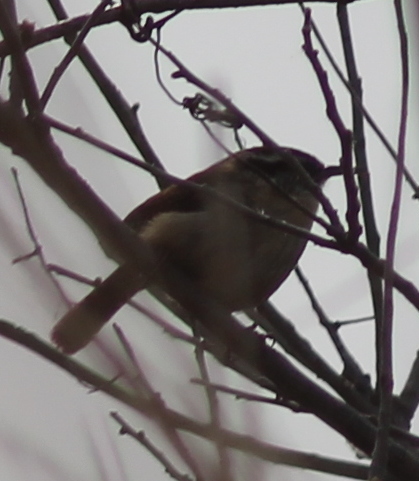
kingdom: Animalia
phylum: Chordata
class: Aves
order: Passeriformes
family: Troglodytidae
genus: Thryothorus
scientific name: Thryothorus ludovicianus
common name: Carolina wren
